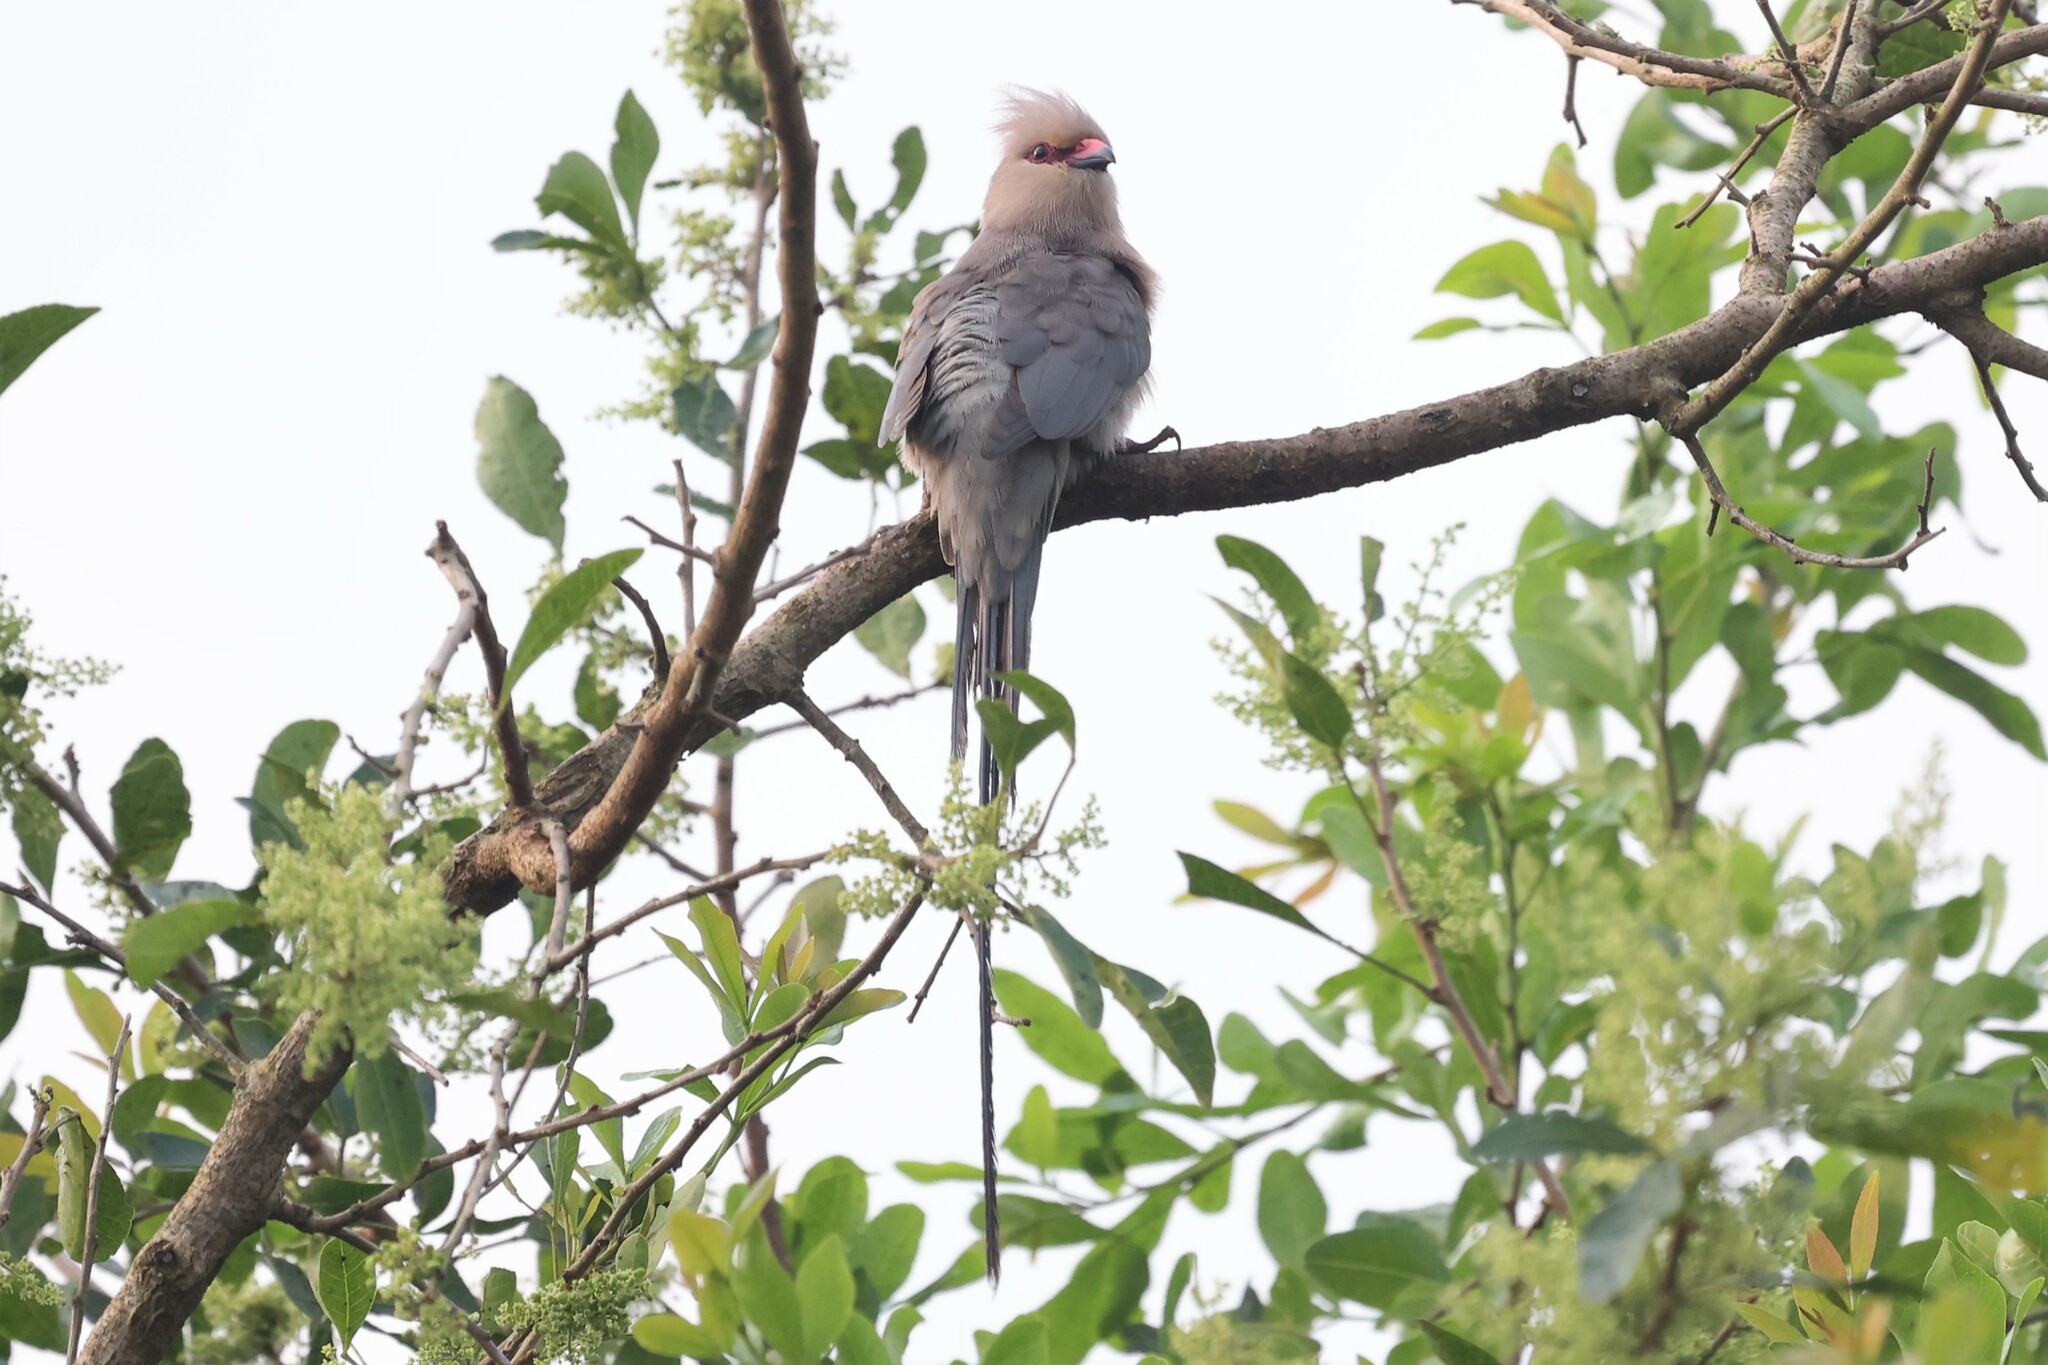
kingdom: Animalia
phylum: Chordata
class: Aves
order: Coliiformes
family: Coliidae
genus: Urocolius
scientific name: Urocolius macrourus
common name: Blue-naped mousebird
